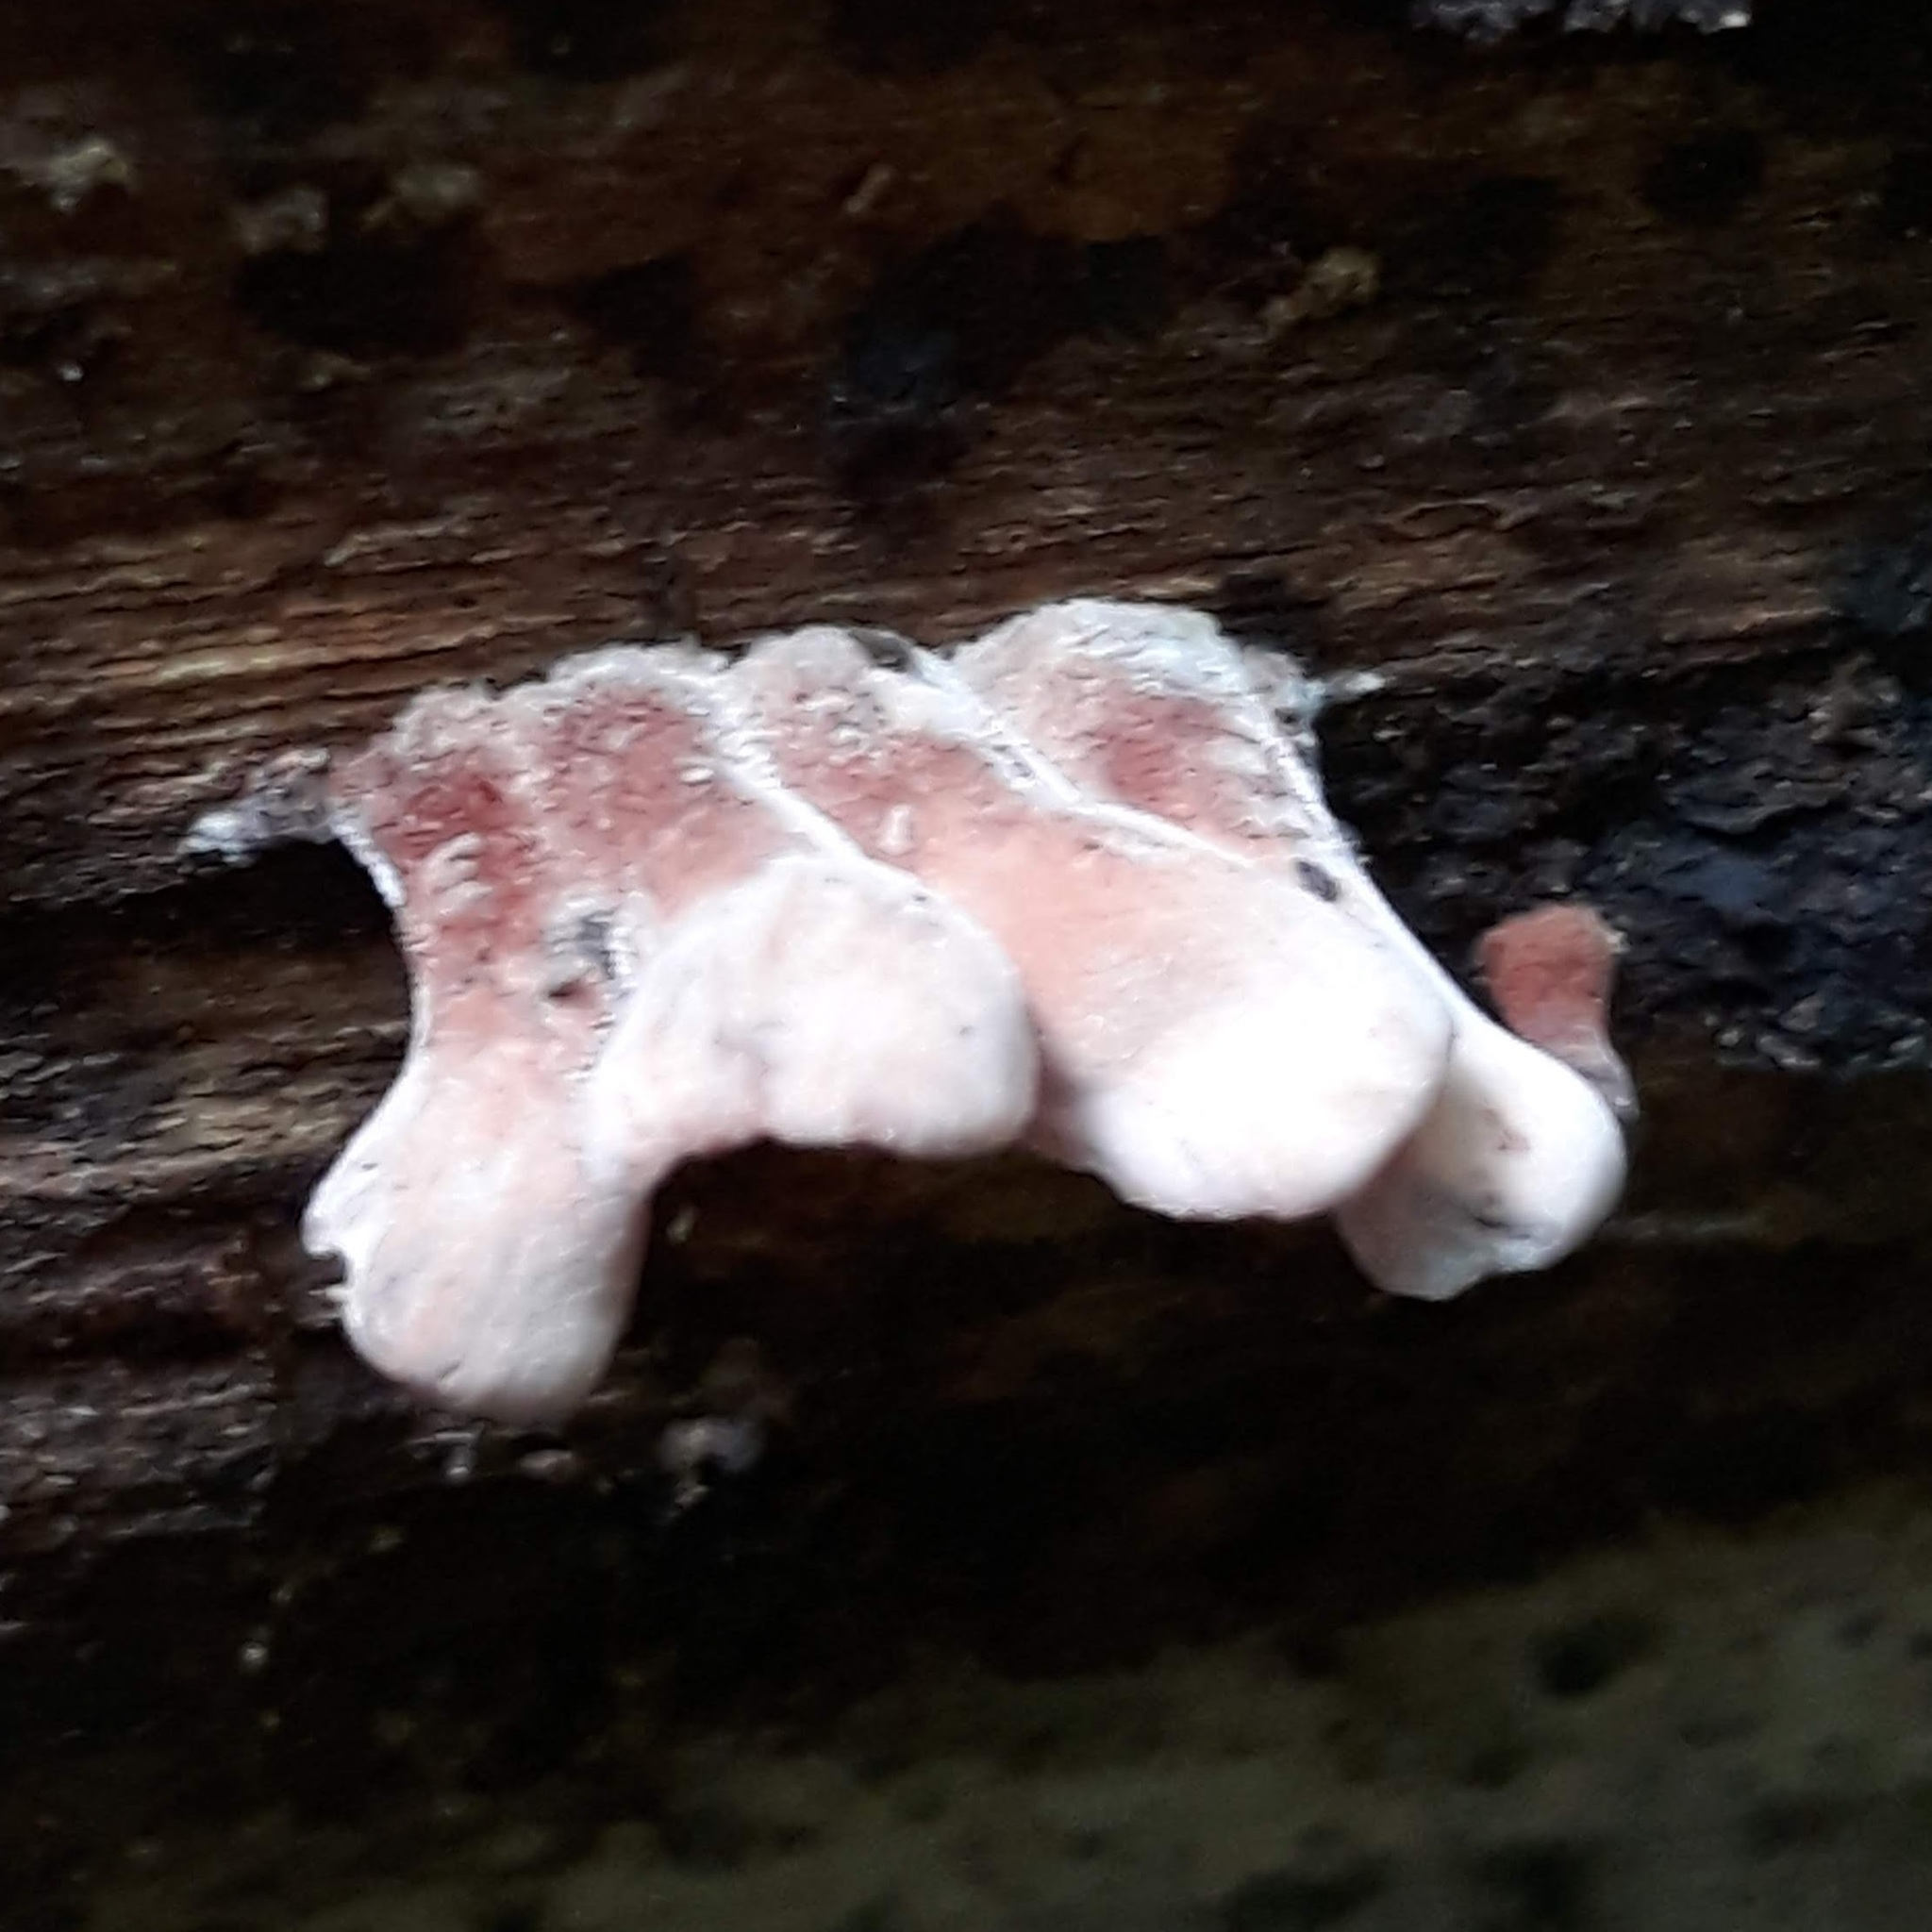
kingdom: Fungi
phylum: Basidiomycota
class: Dacrymycetes
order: Dacrymycetales
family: Dacrymycetaceae
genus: Dacryopinax
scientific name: Dacryopinax elegans
